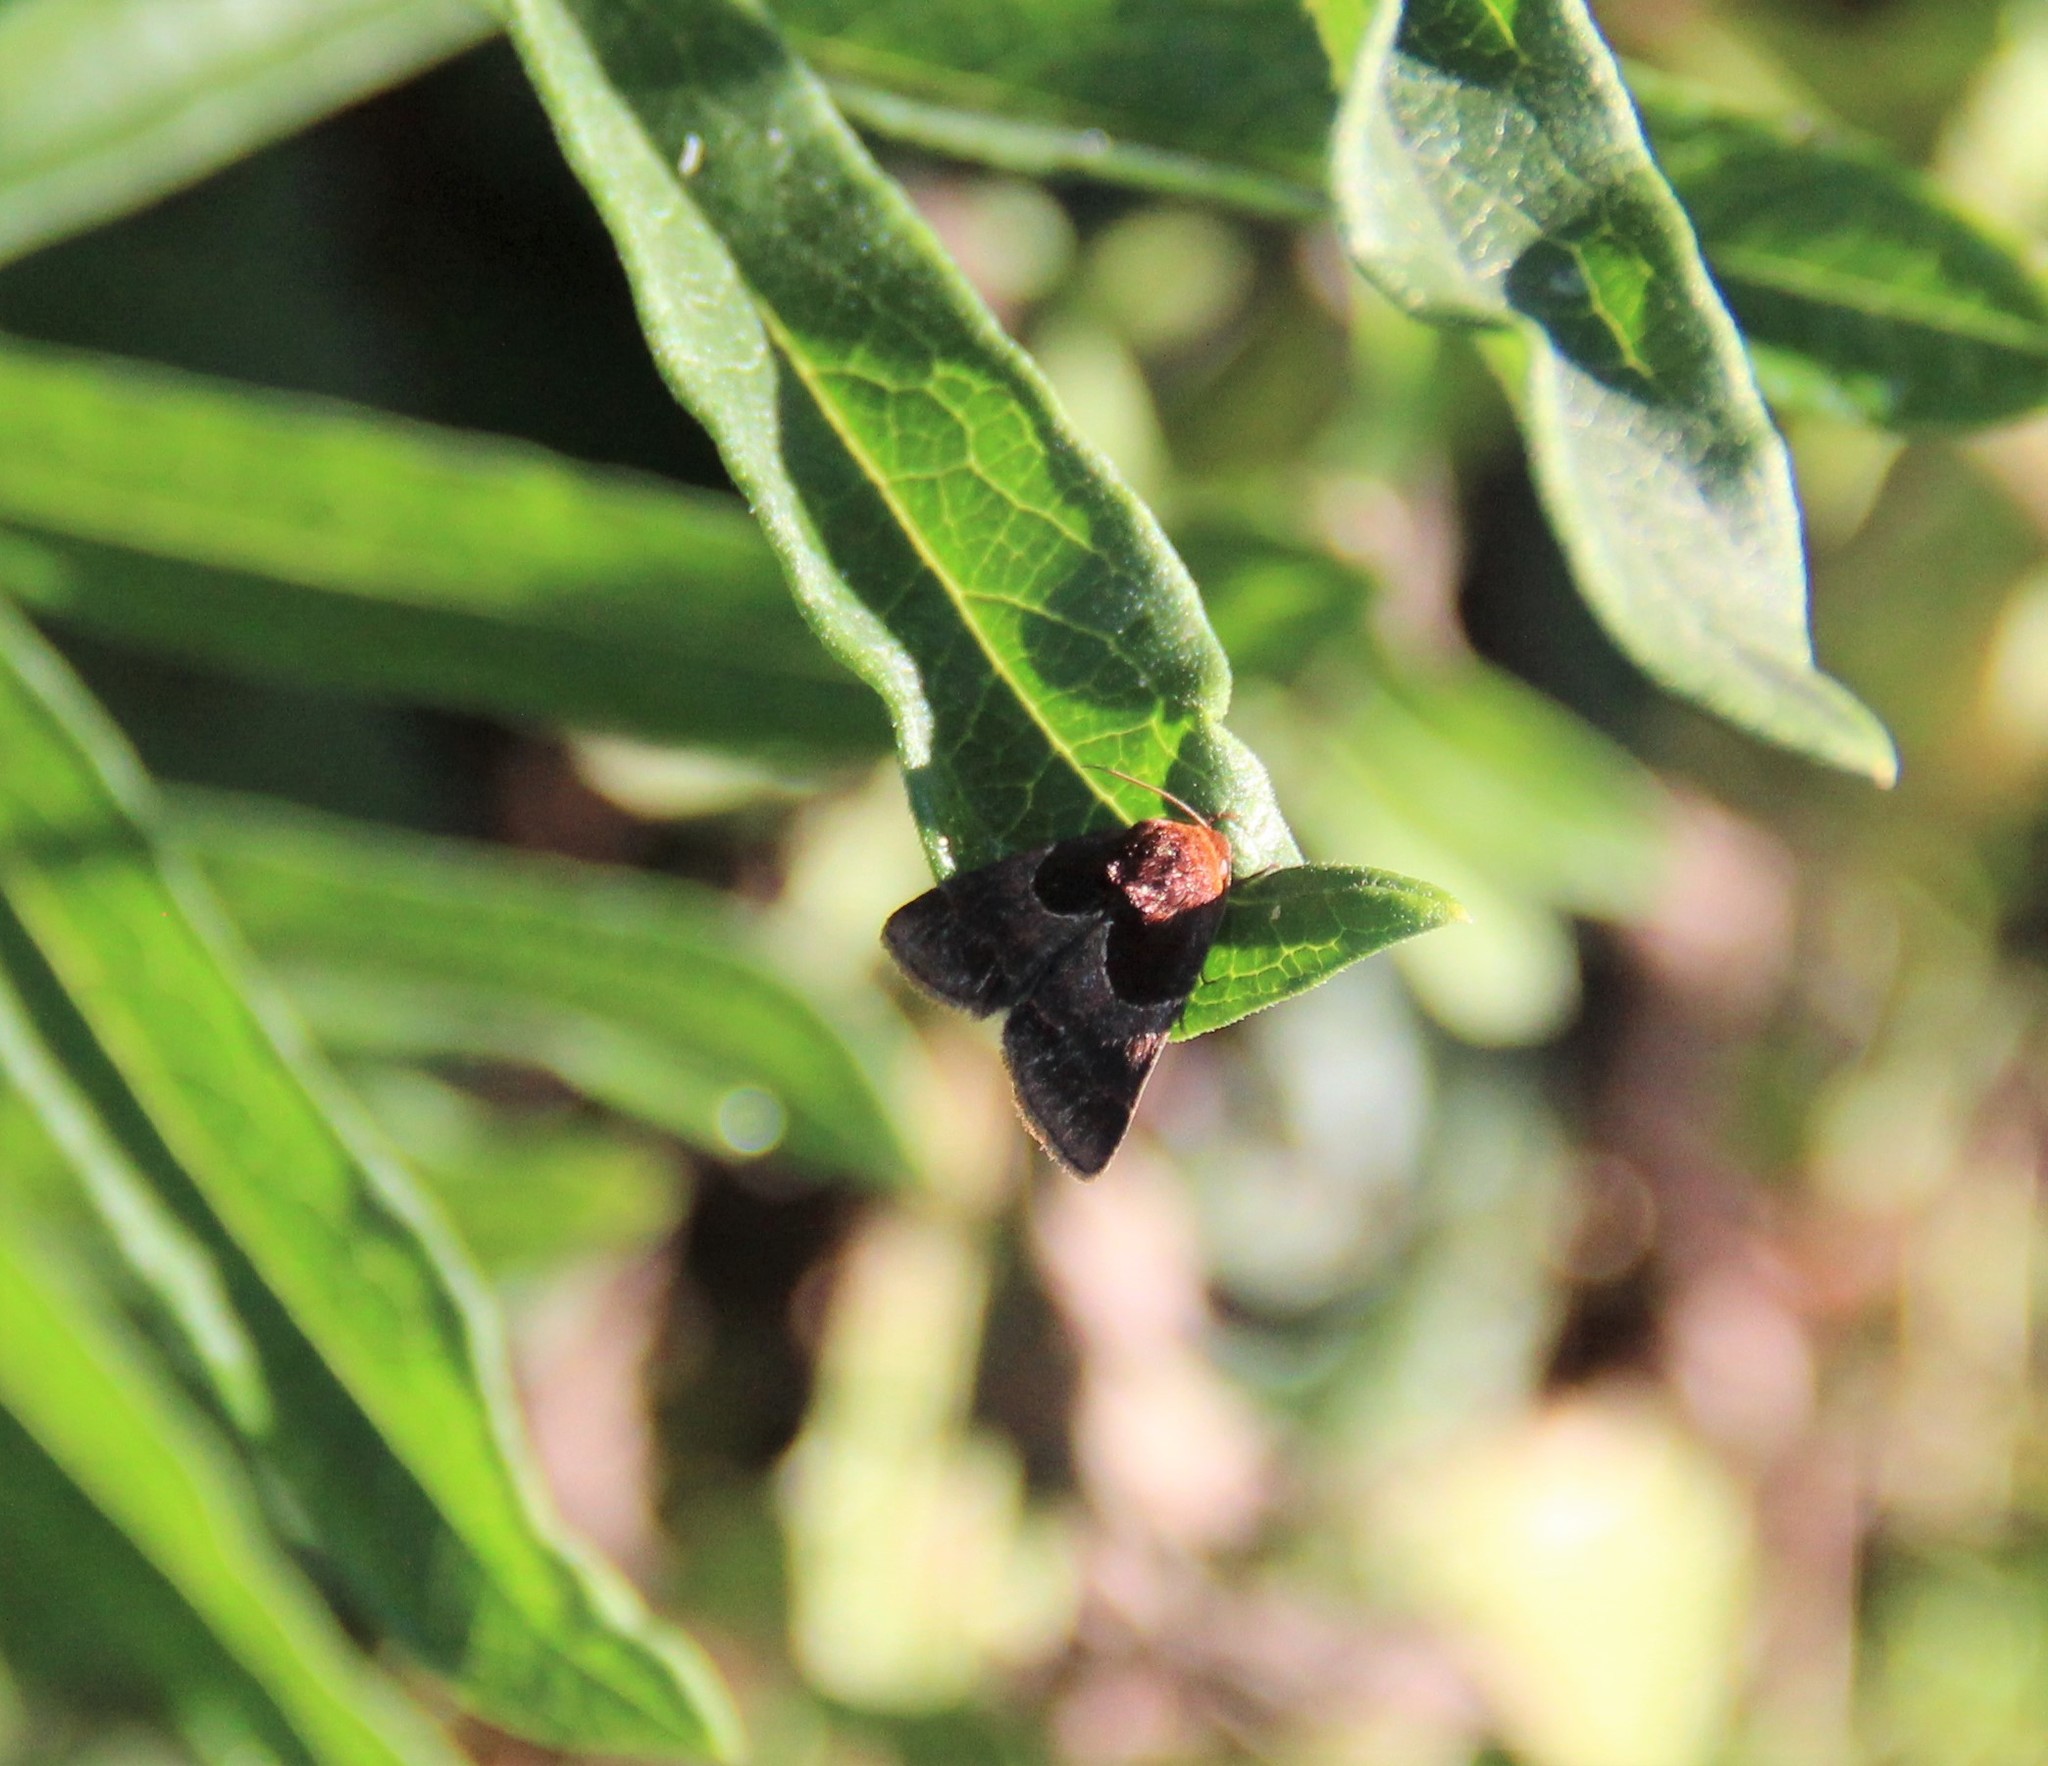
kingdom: Animalia
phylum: Arthropoda
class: Insecta
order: Lepidoptera
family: Noctuidae
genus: Schinia
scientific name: Schinia arcigera
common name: Arcigera flower moth
